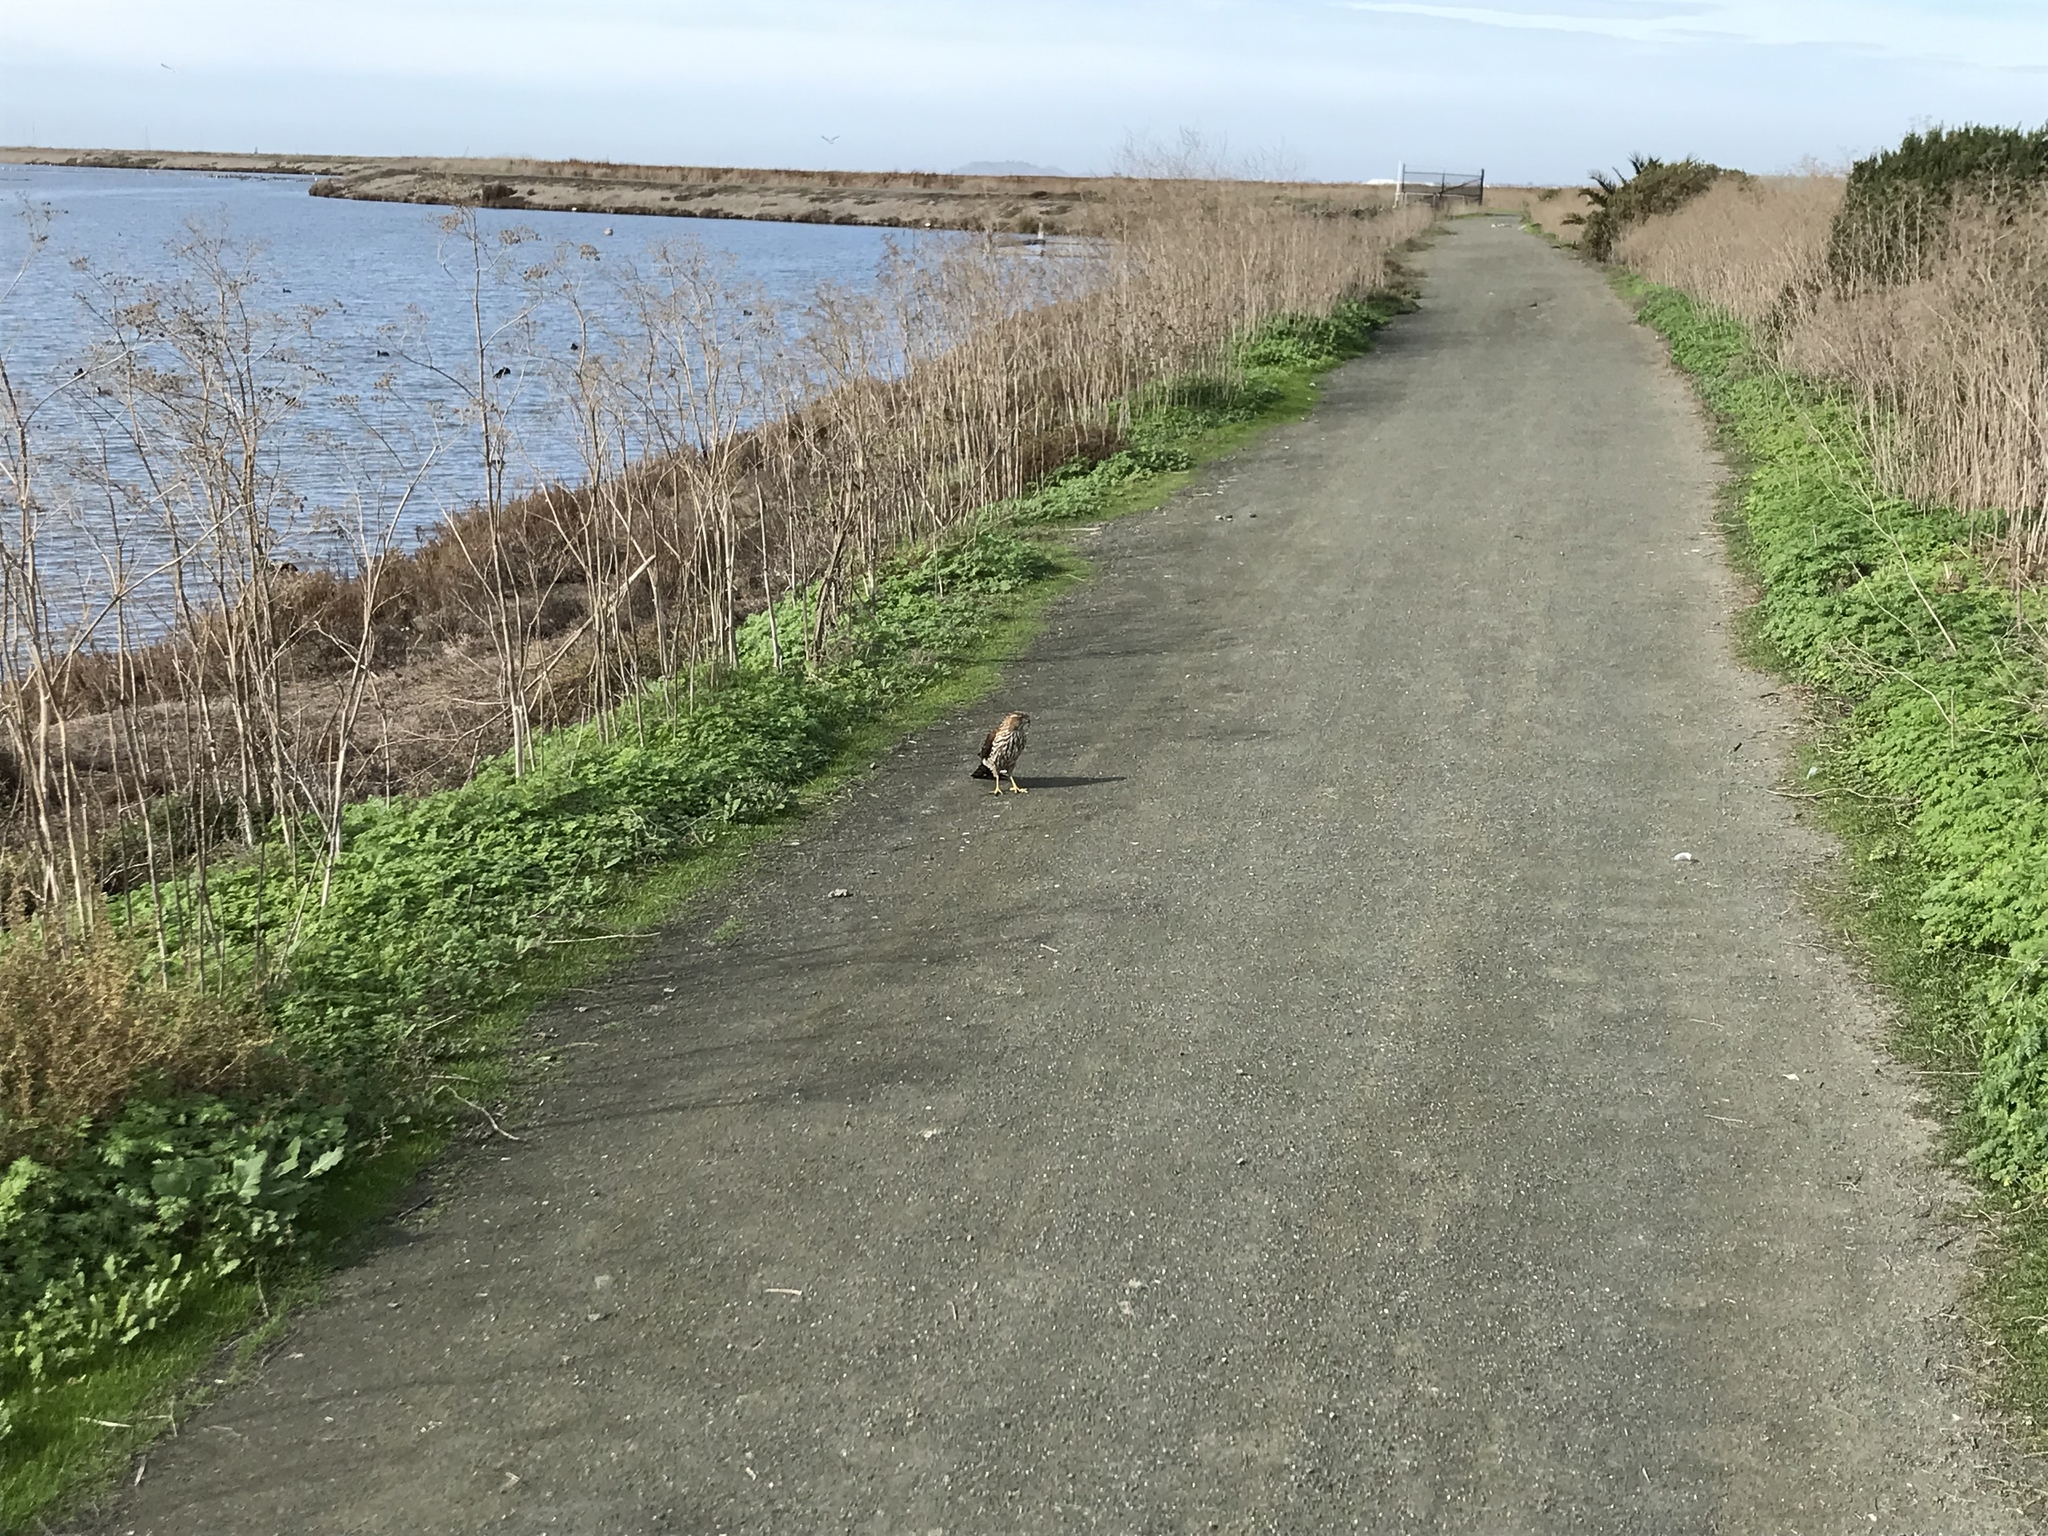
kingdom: Animalia
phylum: Chordata
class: Aves
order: Accipitriformes
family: Accipitridae
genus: Accipiter
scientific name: Accipiter cooperii
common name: Cooper's hawk
